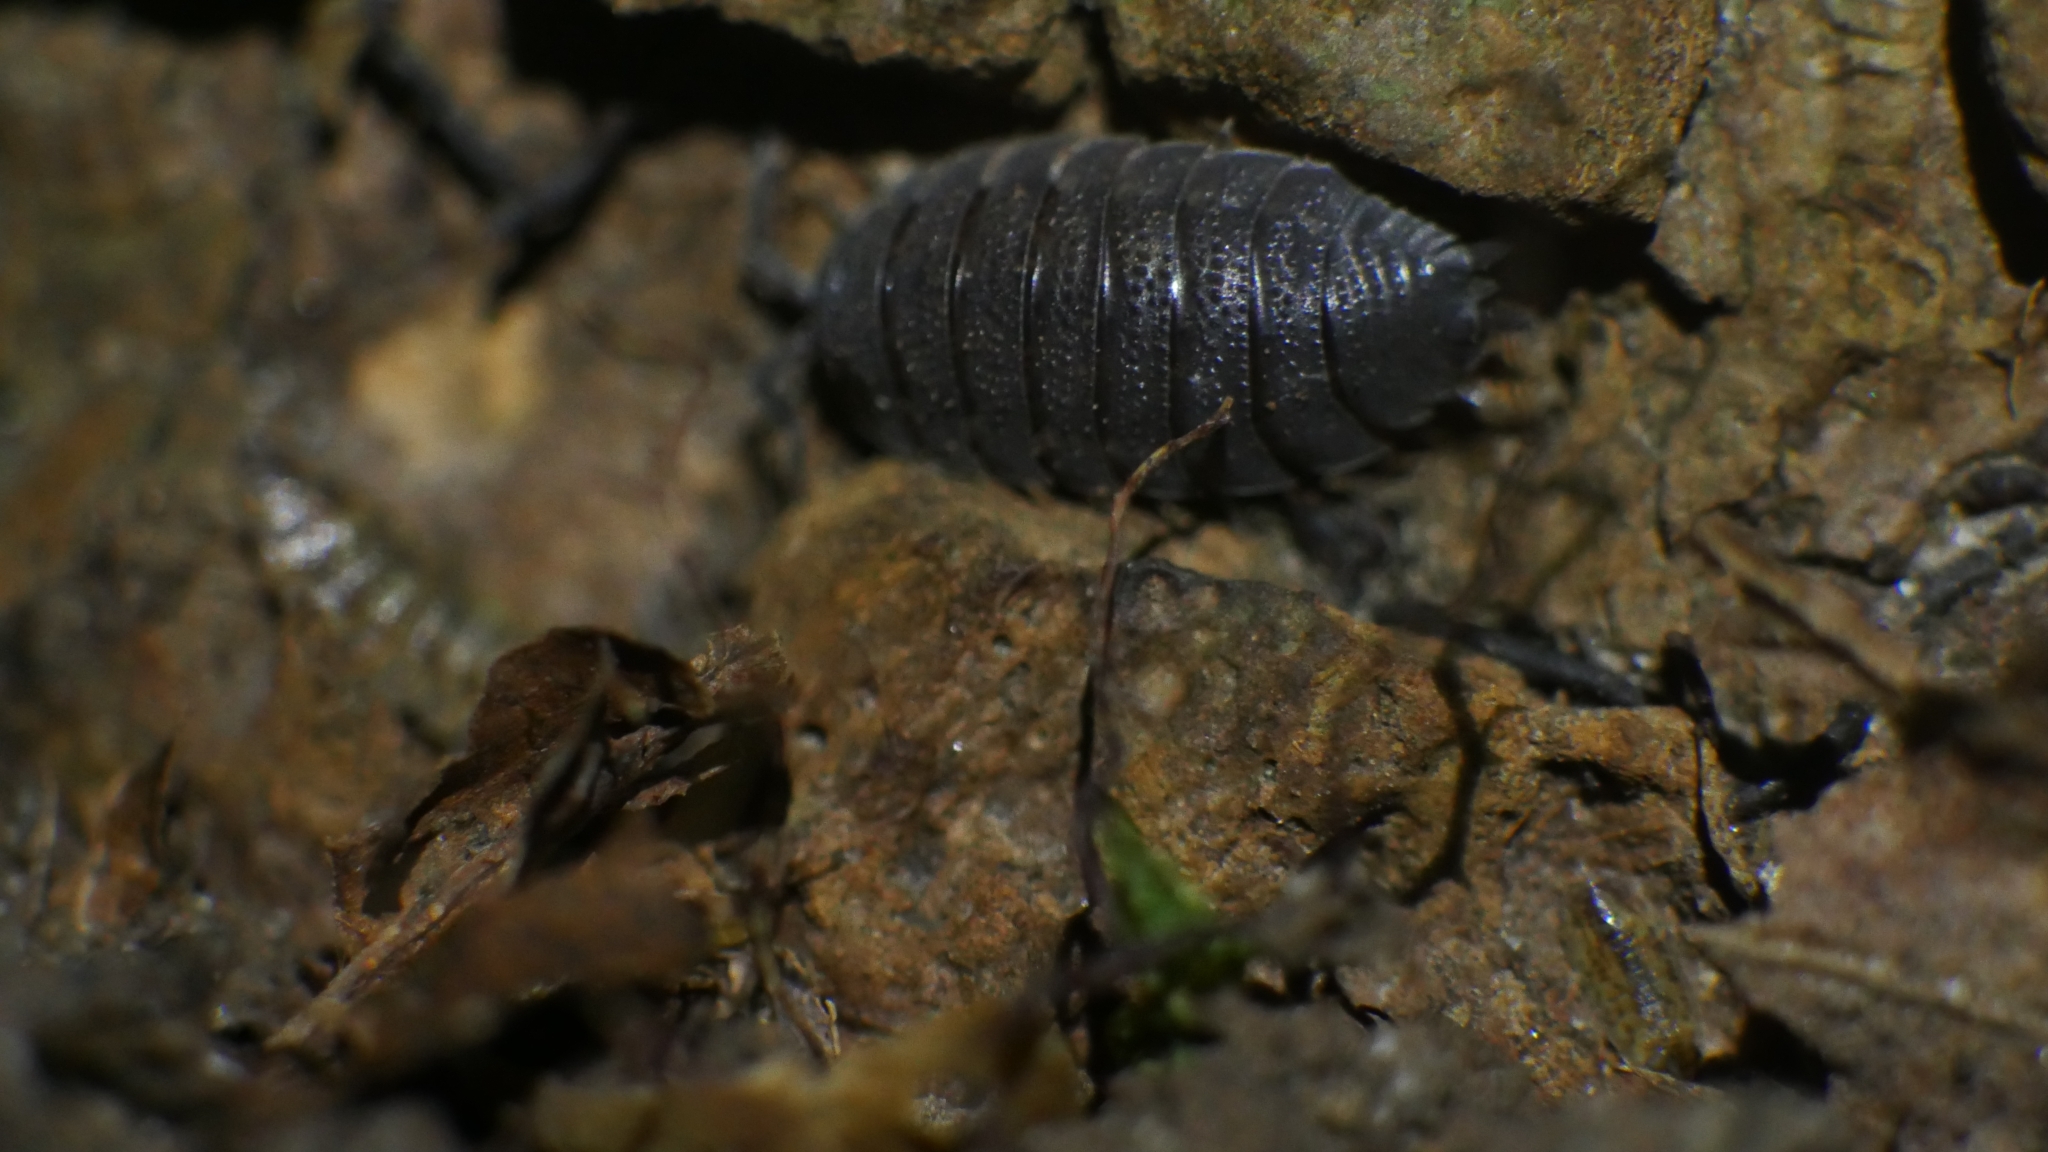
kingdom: Animalia
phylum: Arthropoda
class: Malacostraca
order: Isopoda
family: Porcellionidae
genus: Porcellio
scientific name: Porcellio scaber
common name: Common rough woodlouse
